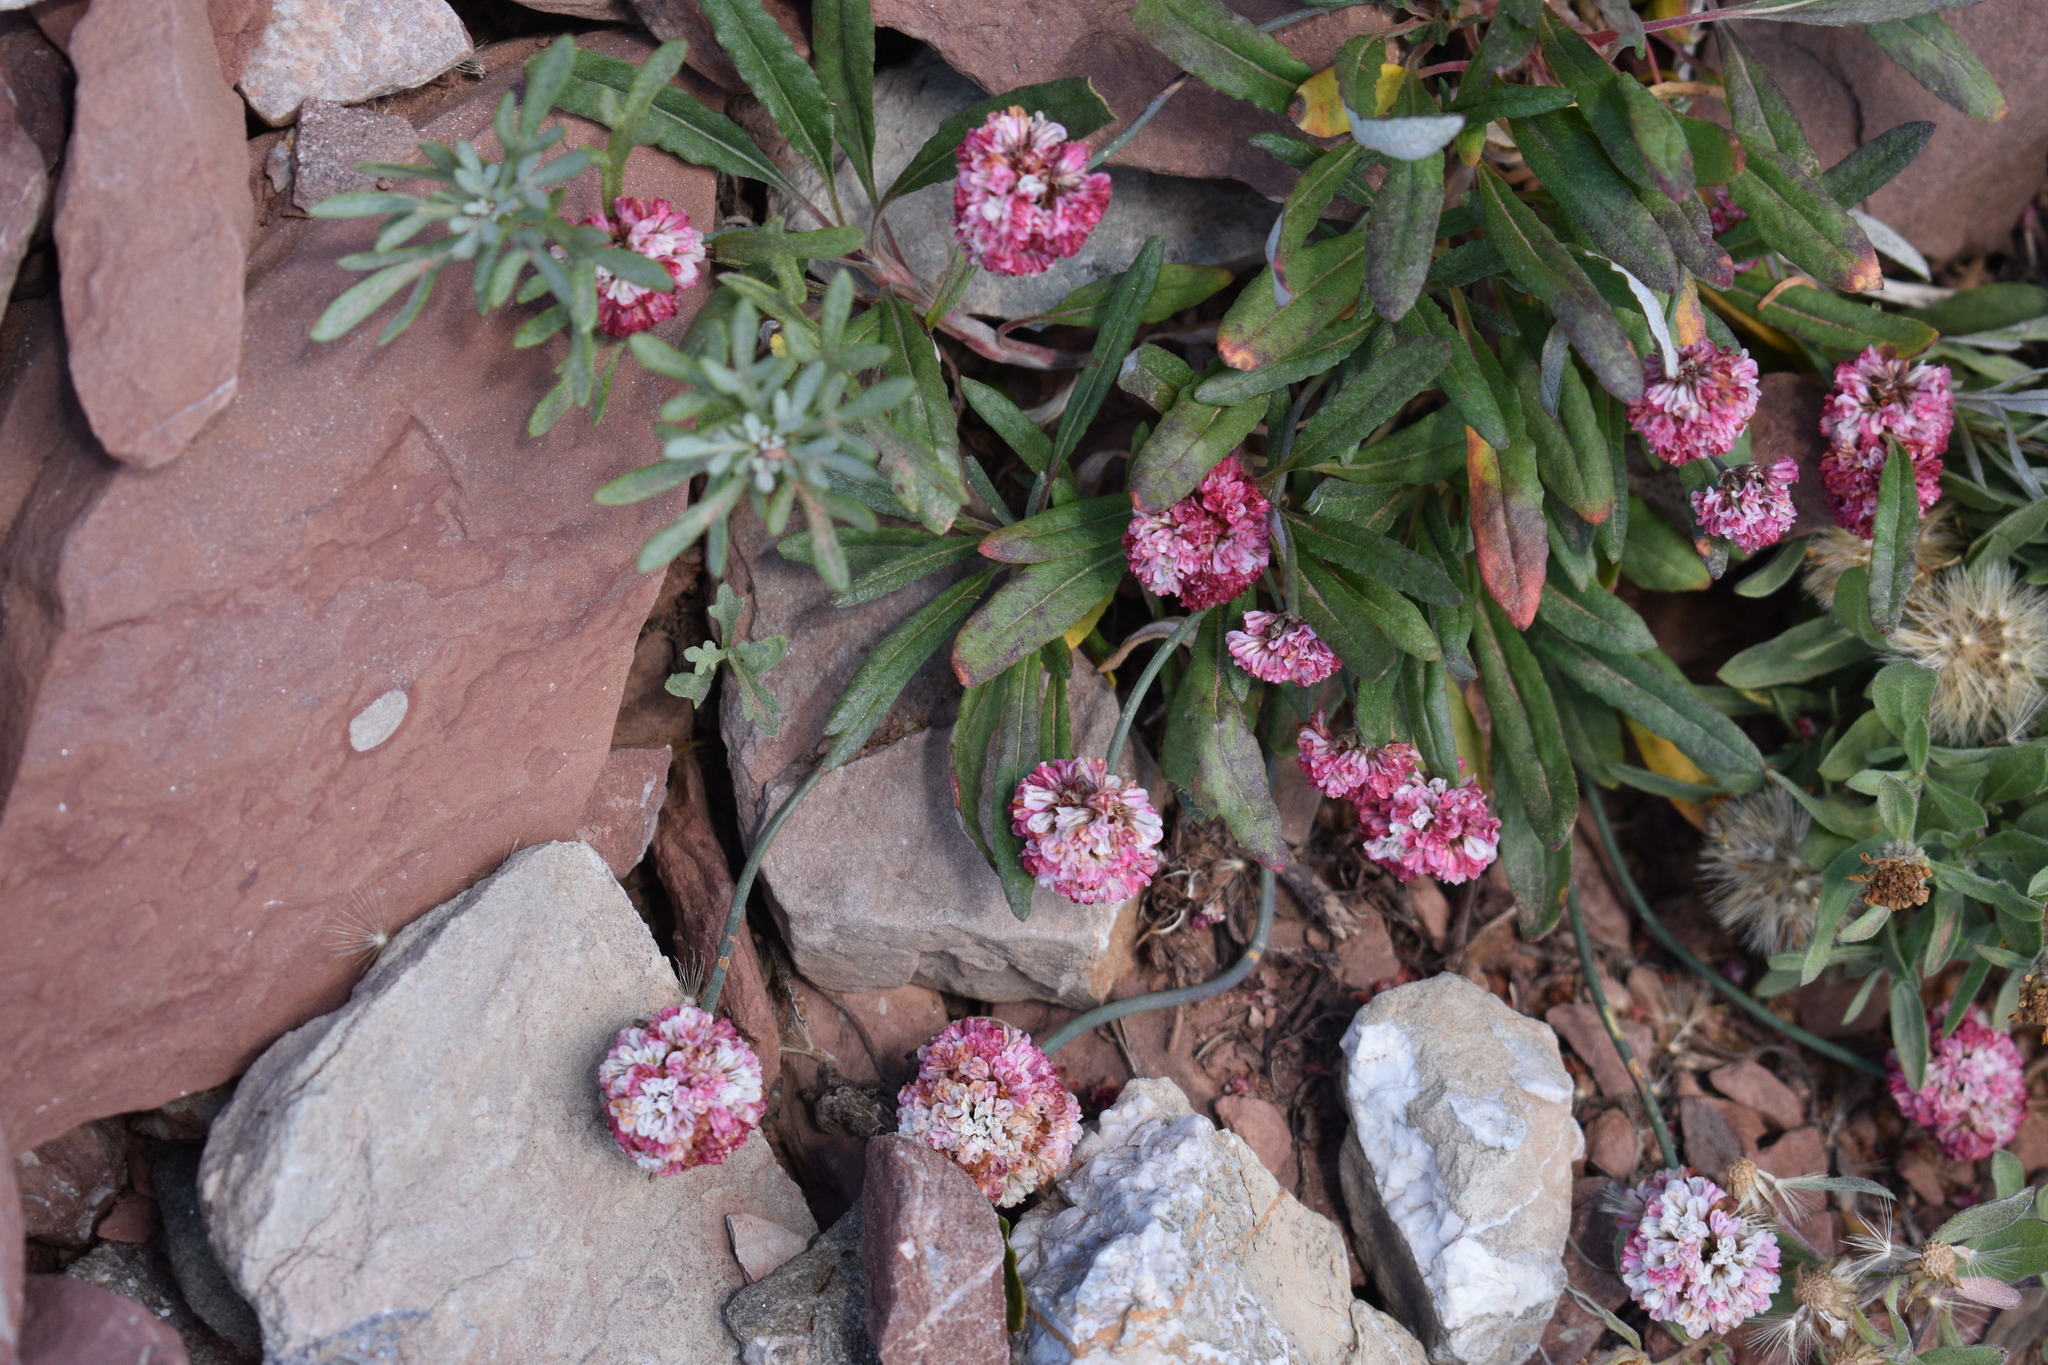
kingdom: Plantae
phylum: Tracheophyta
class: Magnoliopsida
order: Caryophyllales
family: Polygonaceae
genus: Eriogonum
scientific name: Eriogonum coloradense
